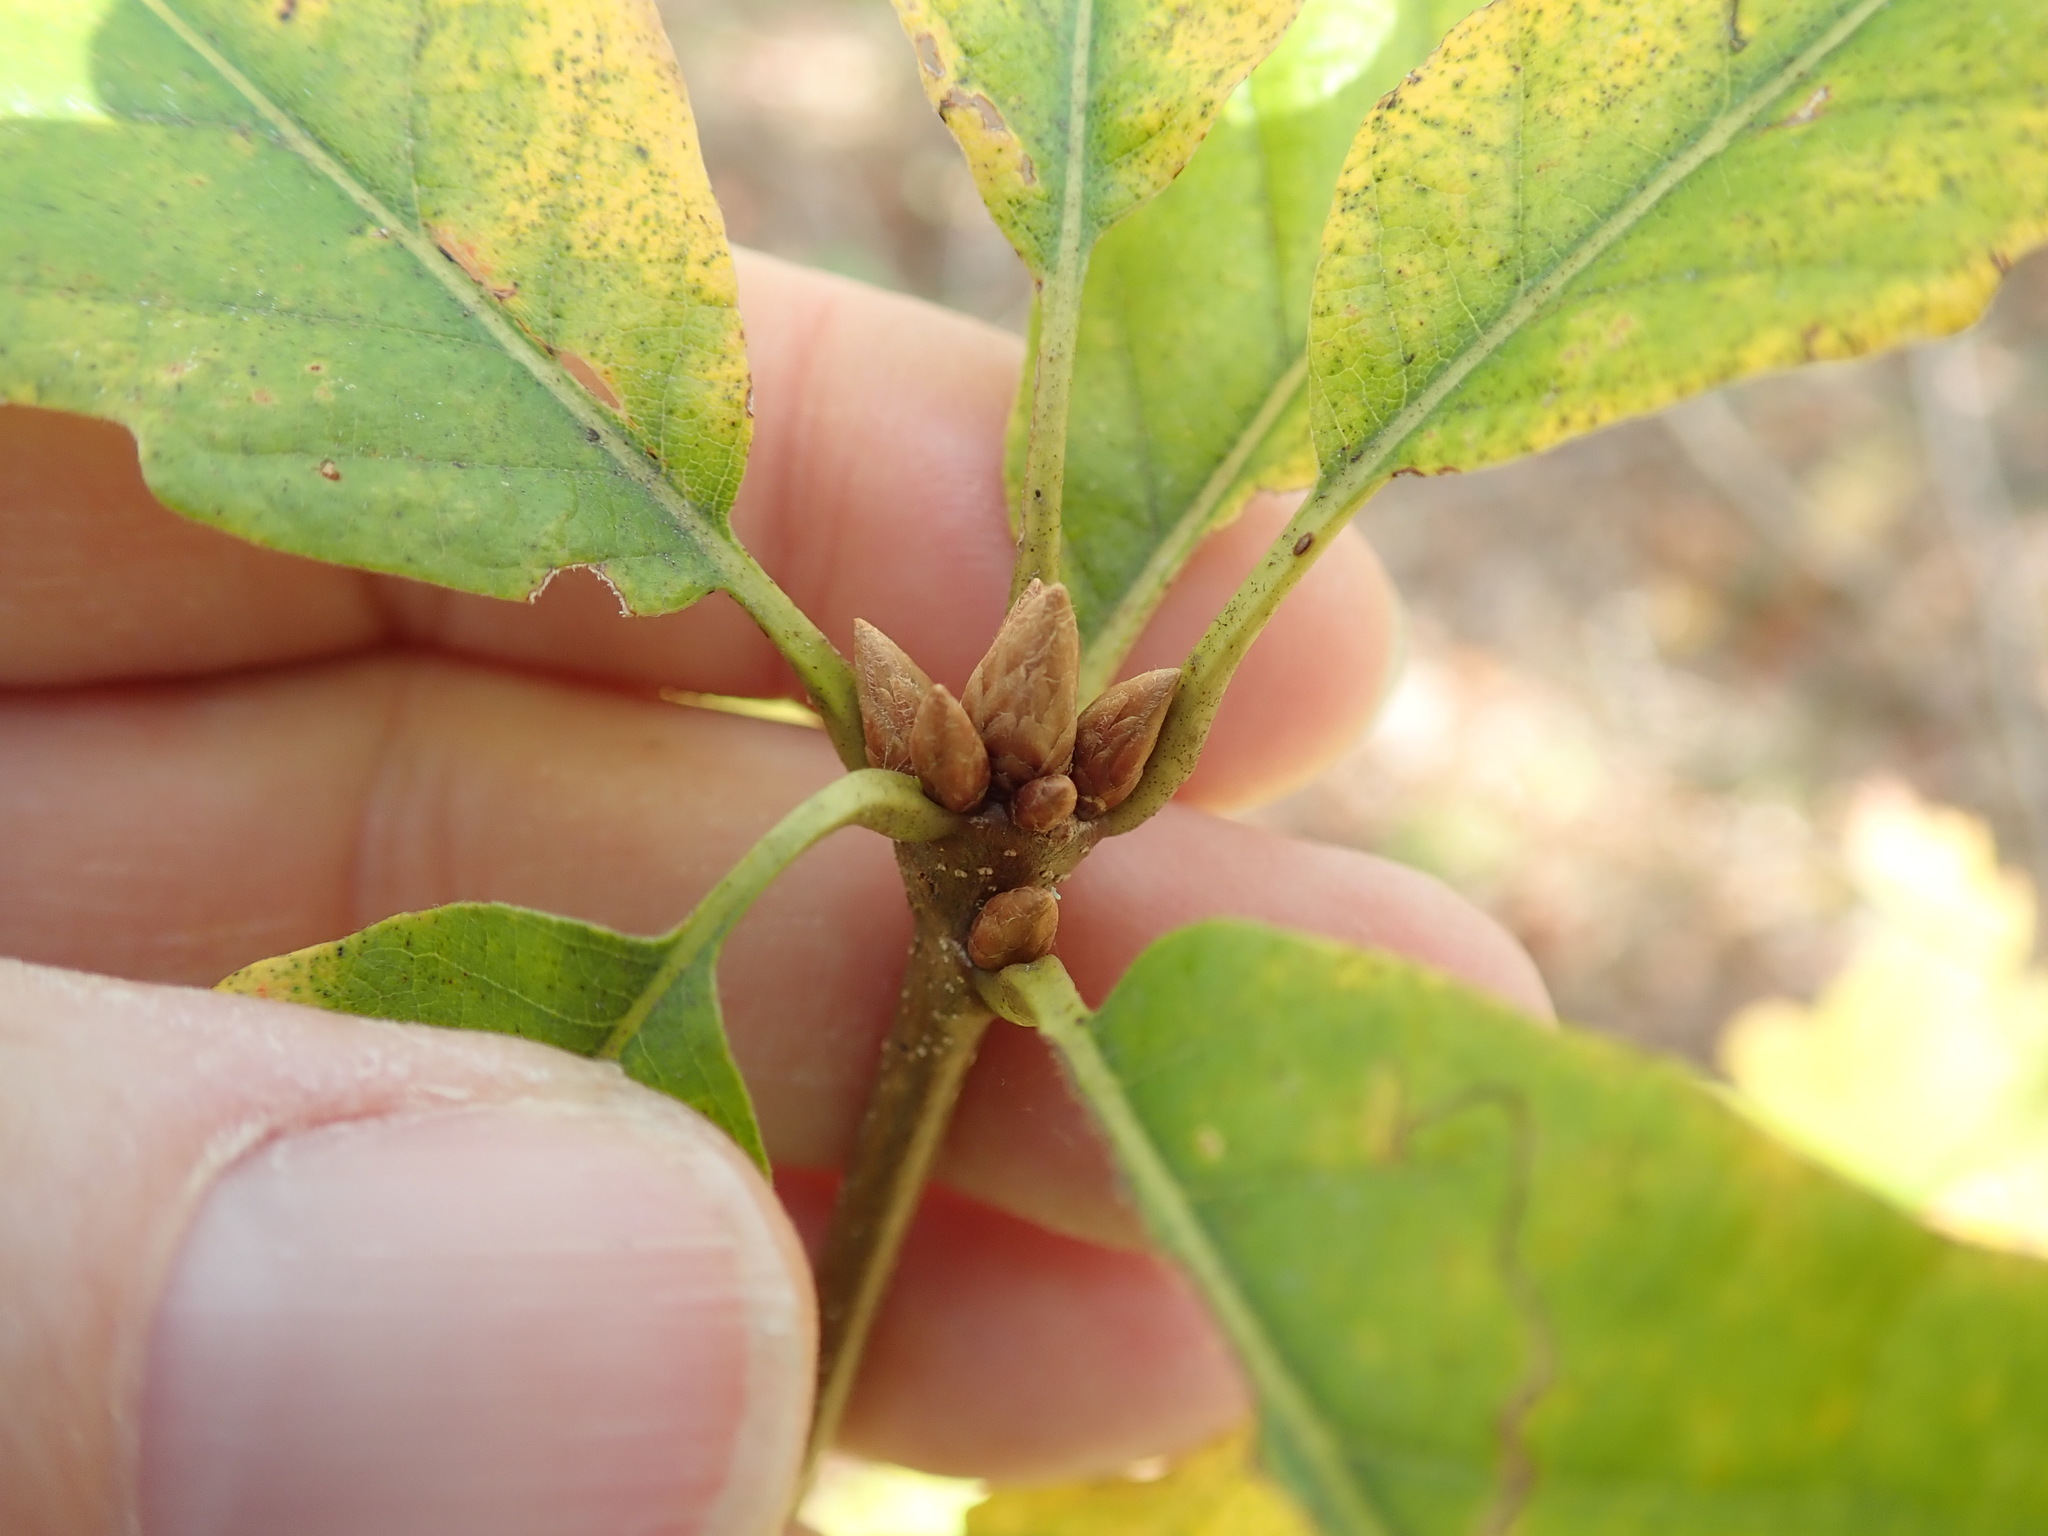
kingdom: Plantae
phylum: Tracheophyta
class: Magnoliopsida
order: Fagales
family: Fagaceae
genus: Quercus
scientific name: Quercus alba
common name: White oak
